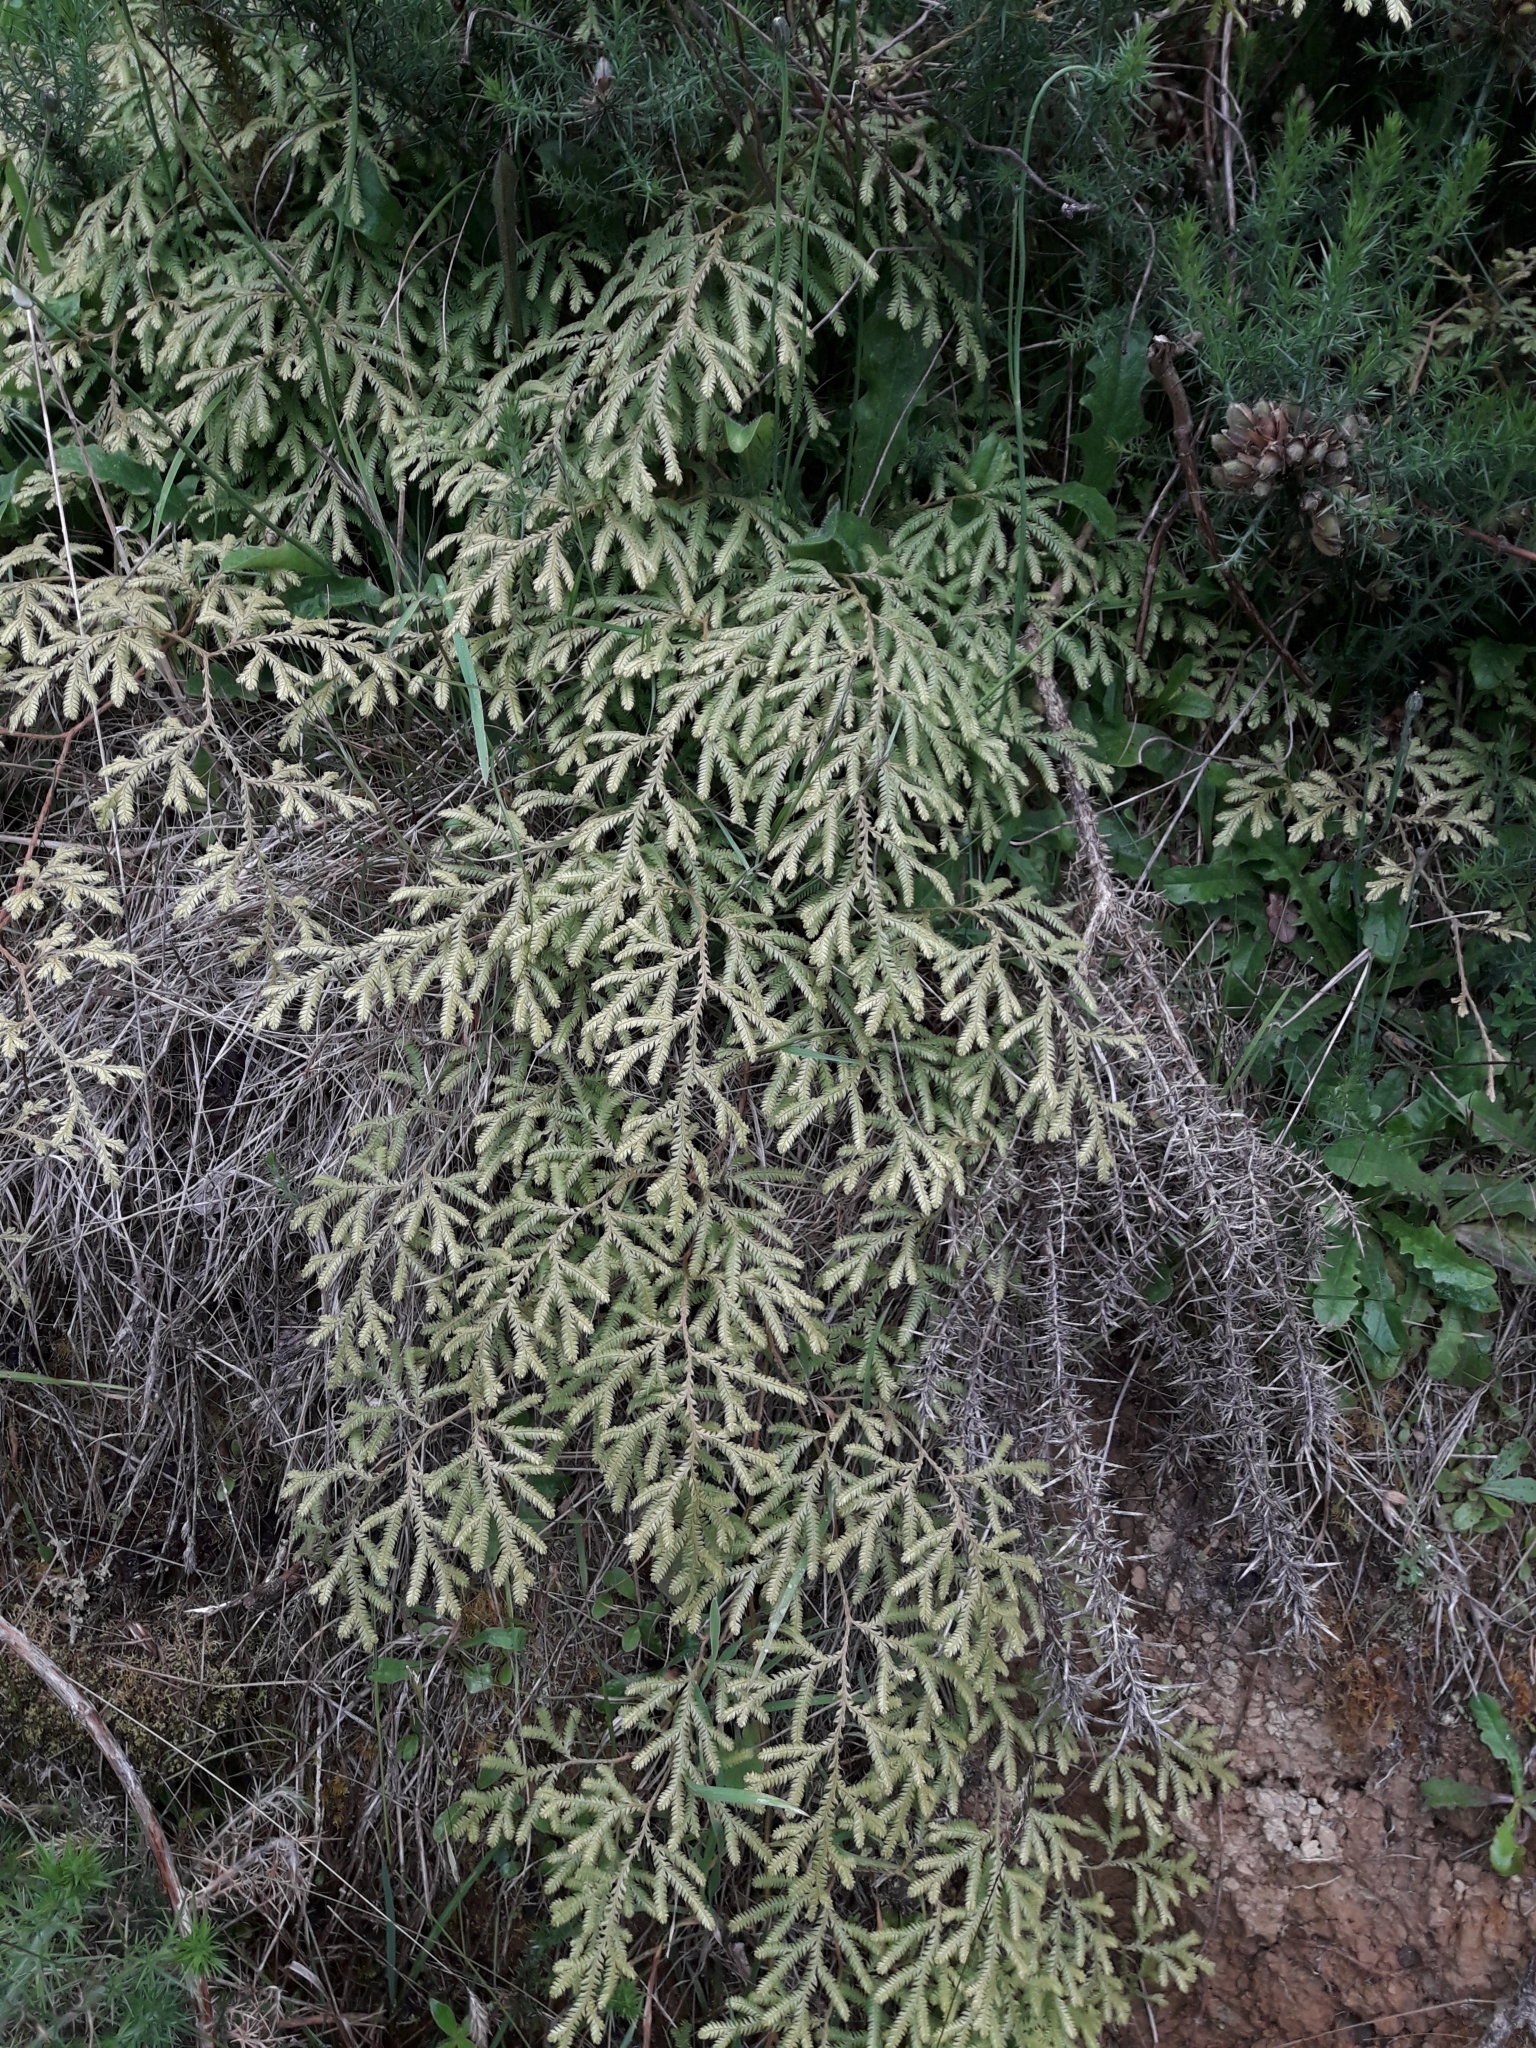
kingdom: Plantae
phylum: Tracheophyta
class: Lycopodiopsida
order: Lycopodiales
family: Lycopodiaceae
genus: Lycopodium
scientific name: Lycopodium volubile
